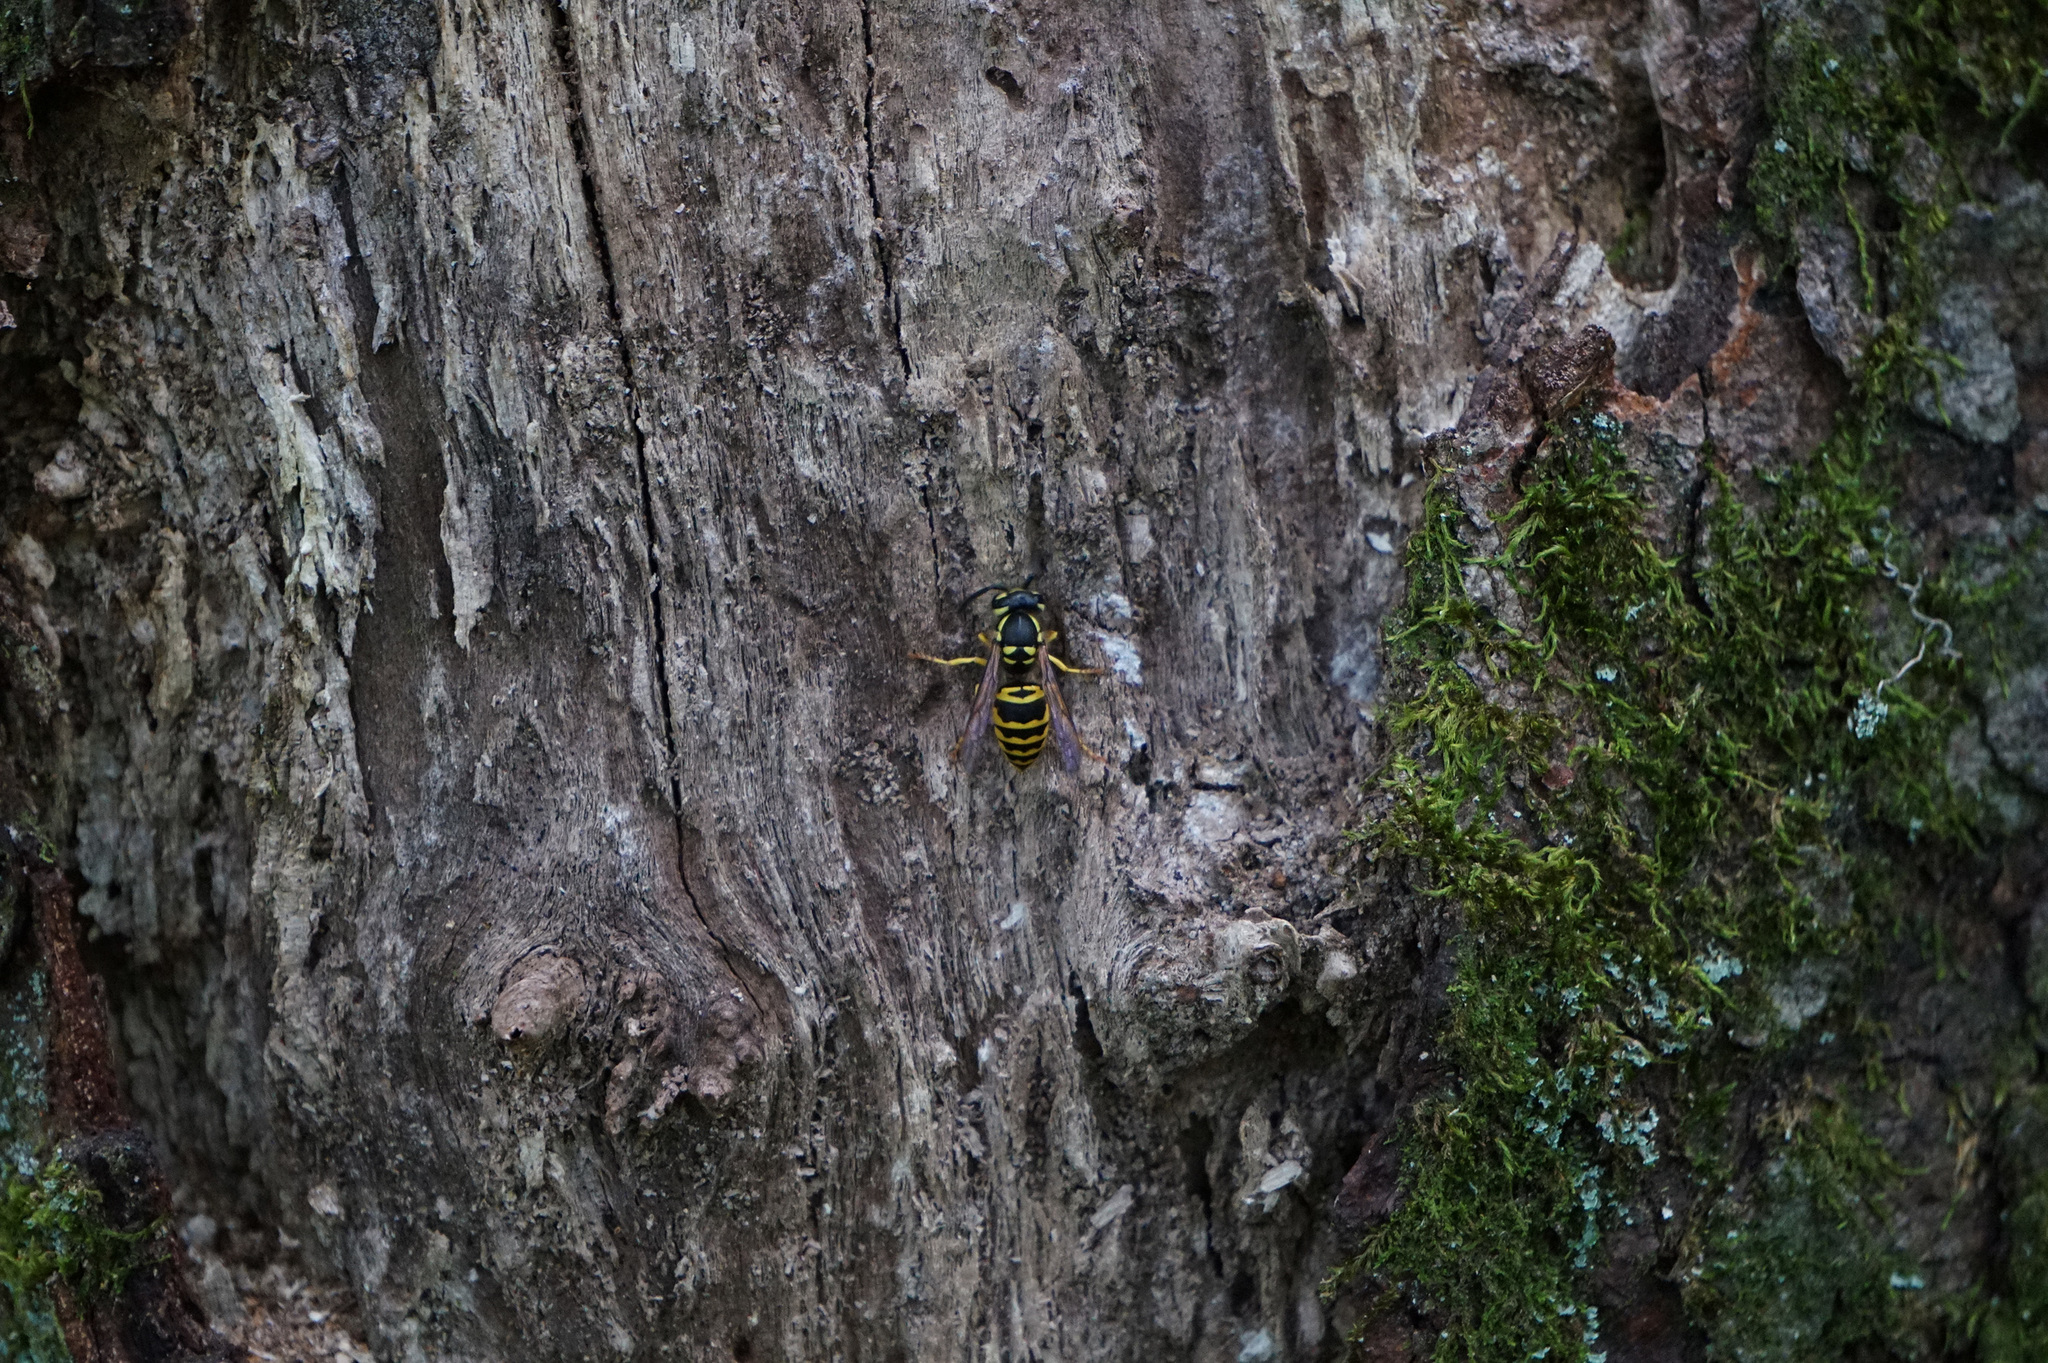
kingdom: Animalia
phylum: Arthropoda
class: Insecta
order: Hymenoptera
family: Vespidae
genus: Vespula
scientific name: Vespula maculifrons
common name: Eastern yellowjacket
